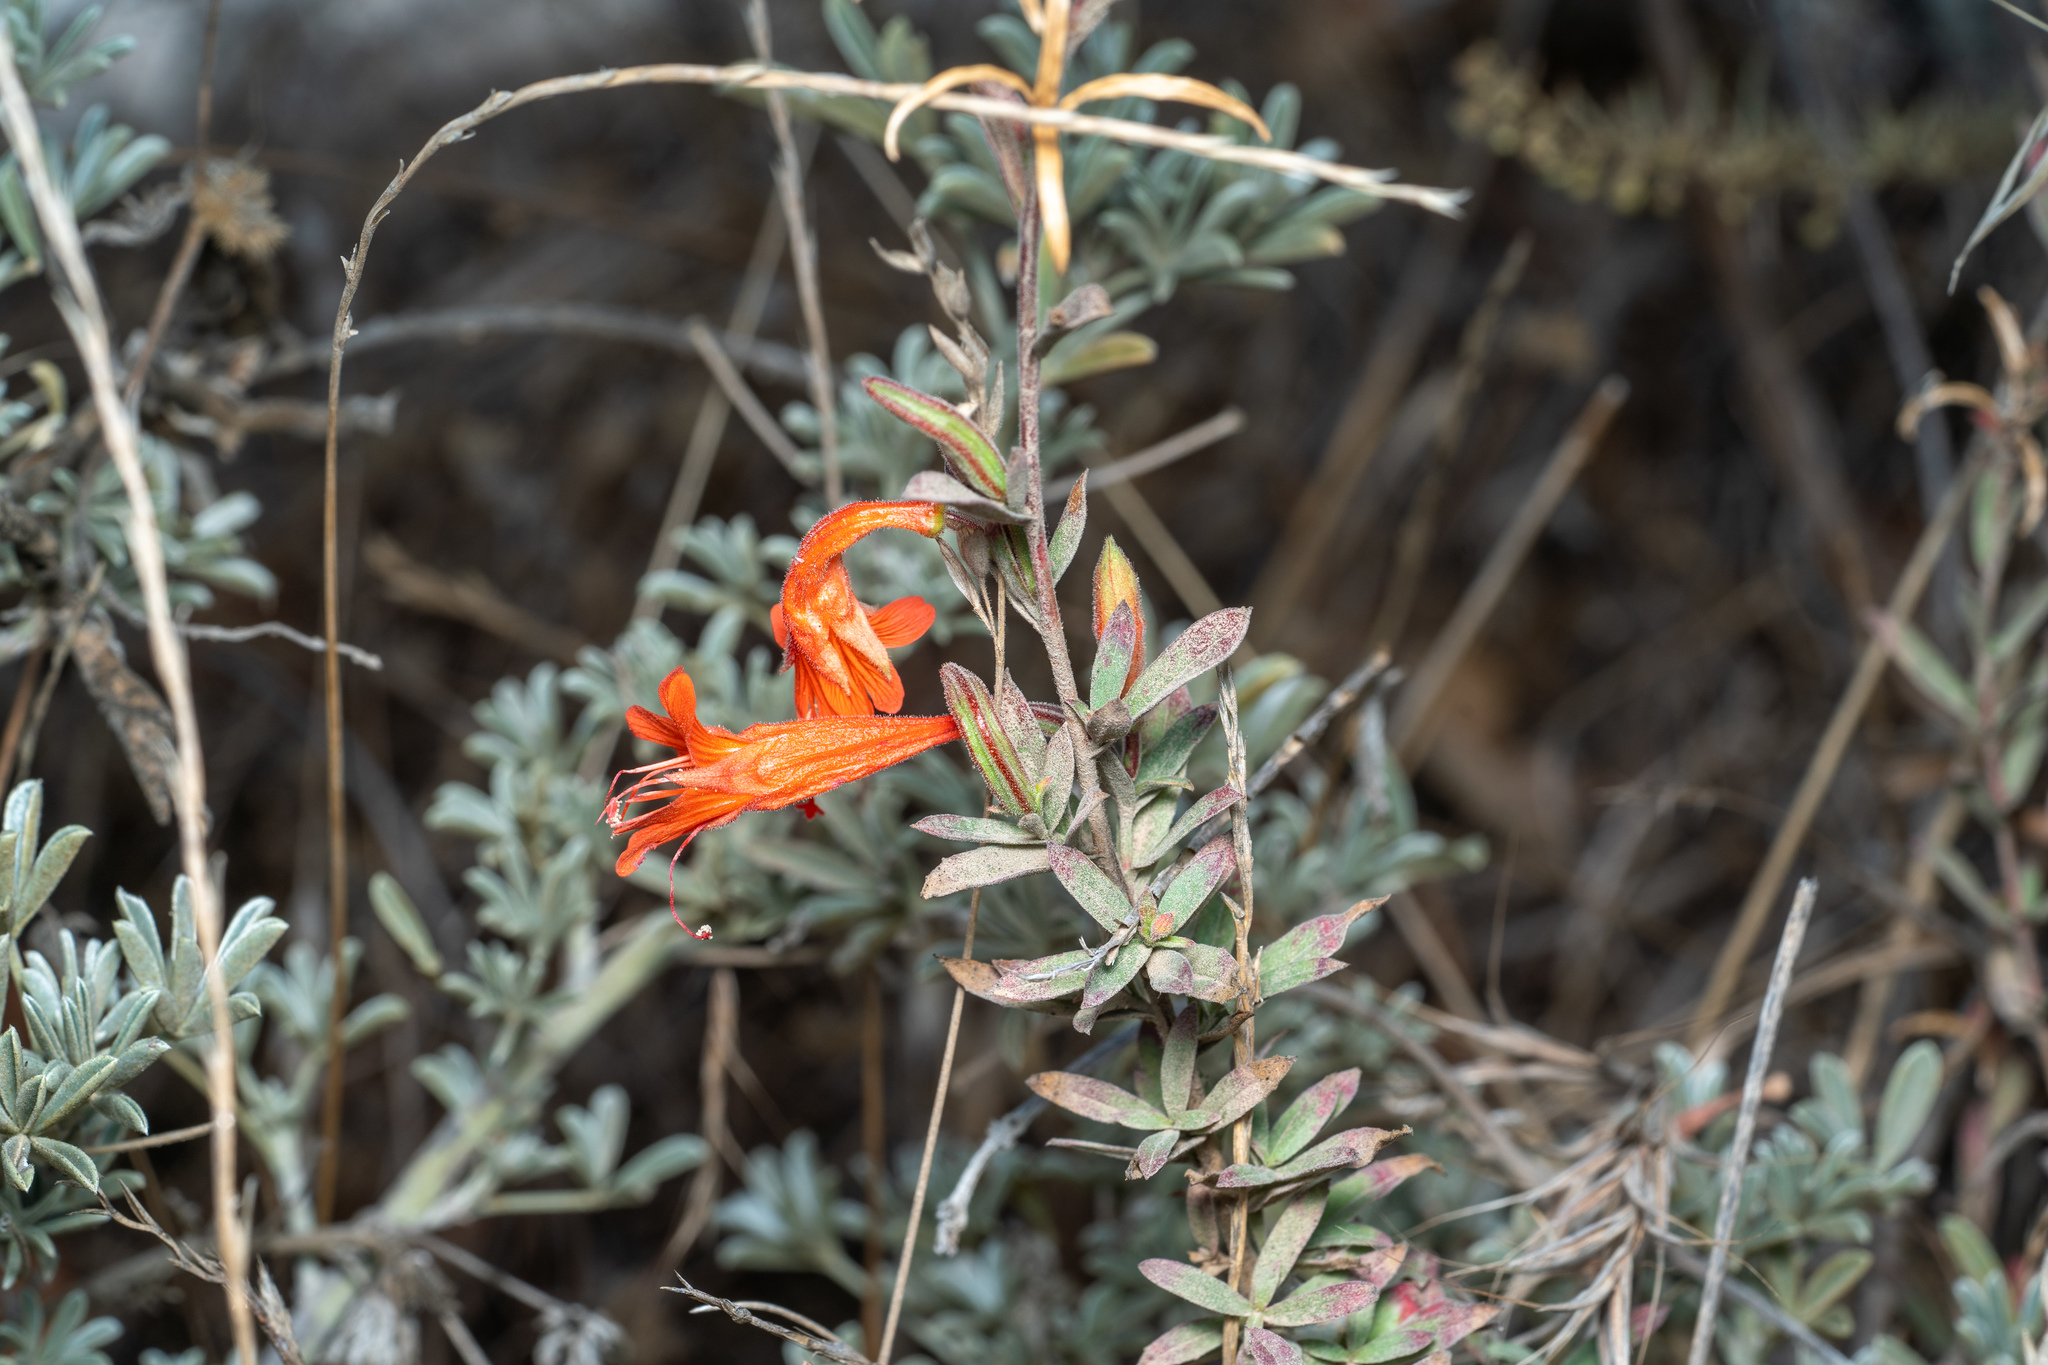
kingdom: Plantae
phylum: Tracheophyta
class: Magnoliopsida
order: Myrtales
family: Onagraceae
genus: Epilobium
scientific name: Epilobium canum
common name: California-fuchsia
